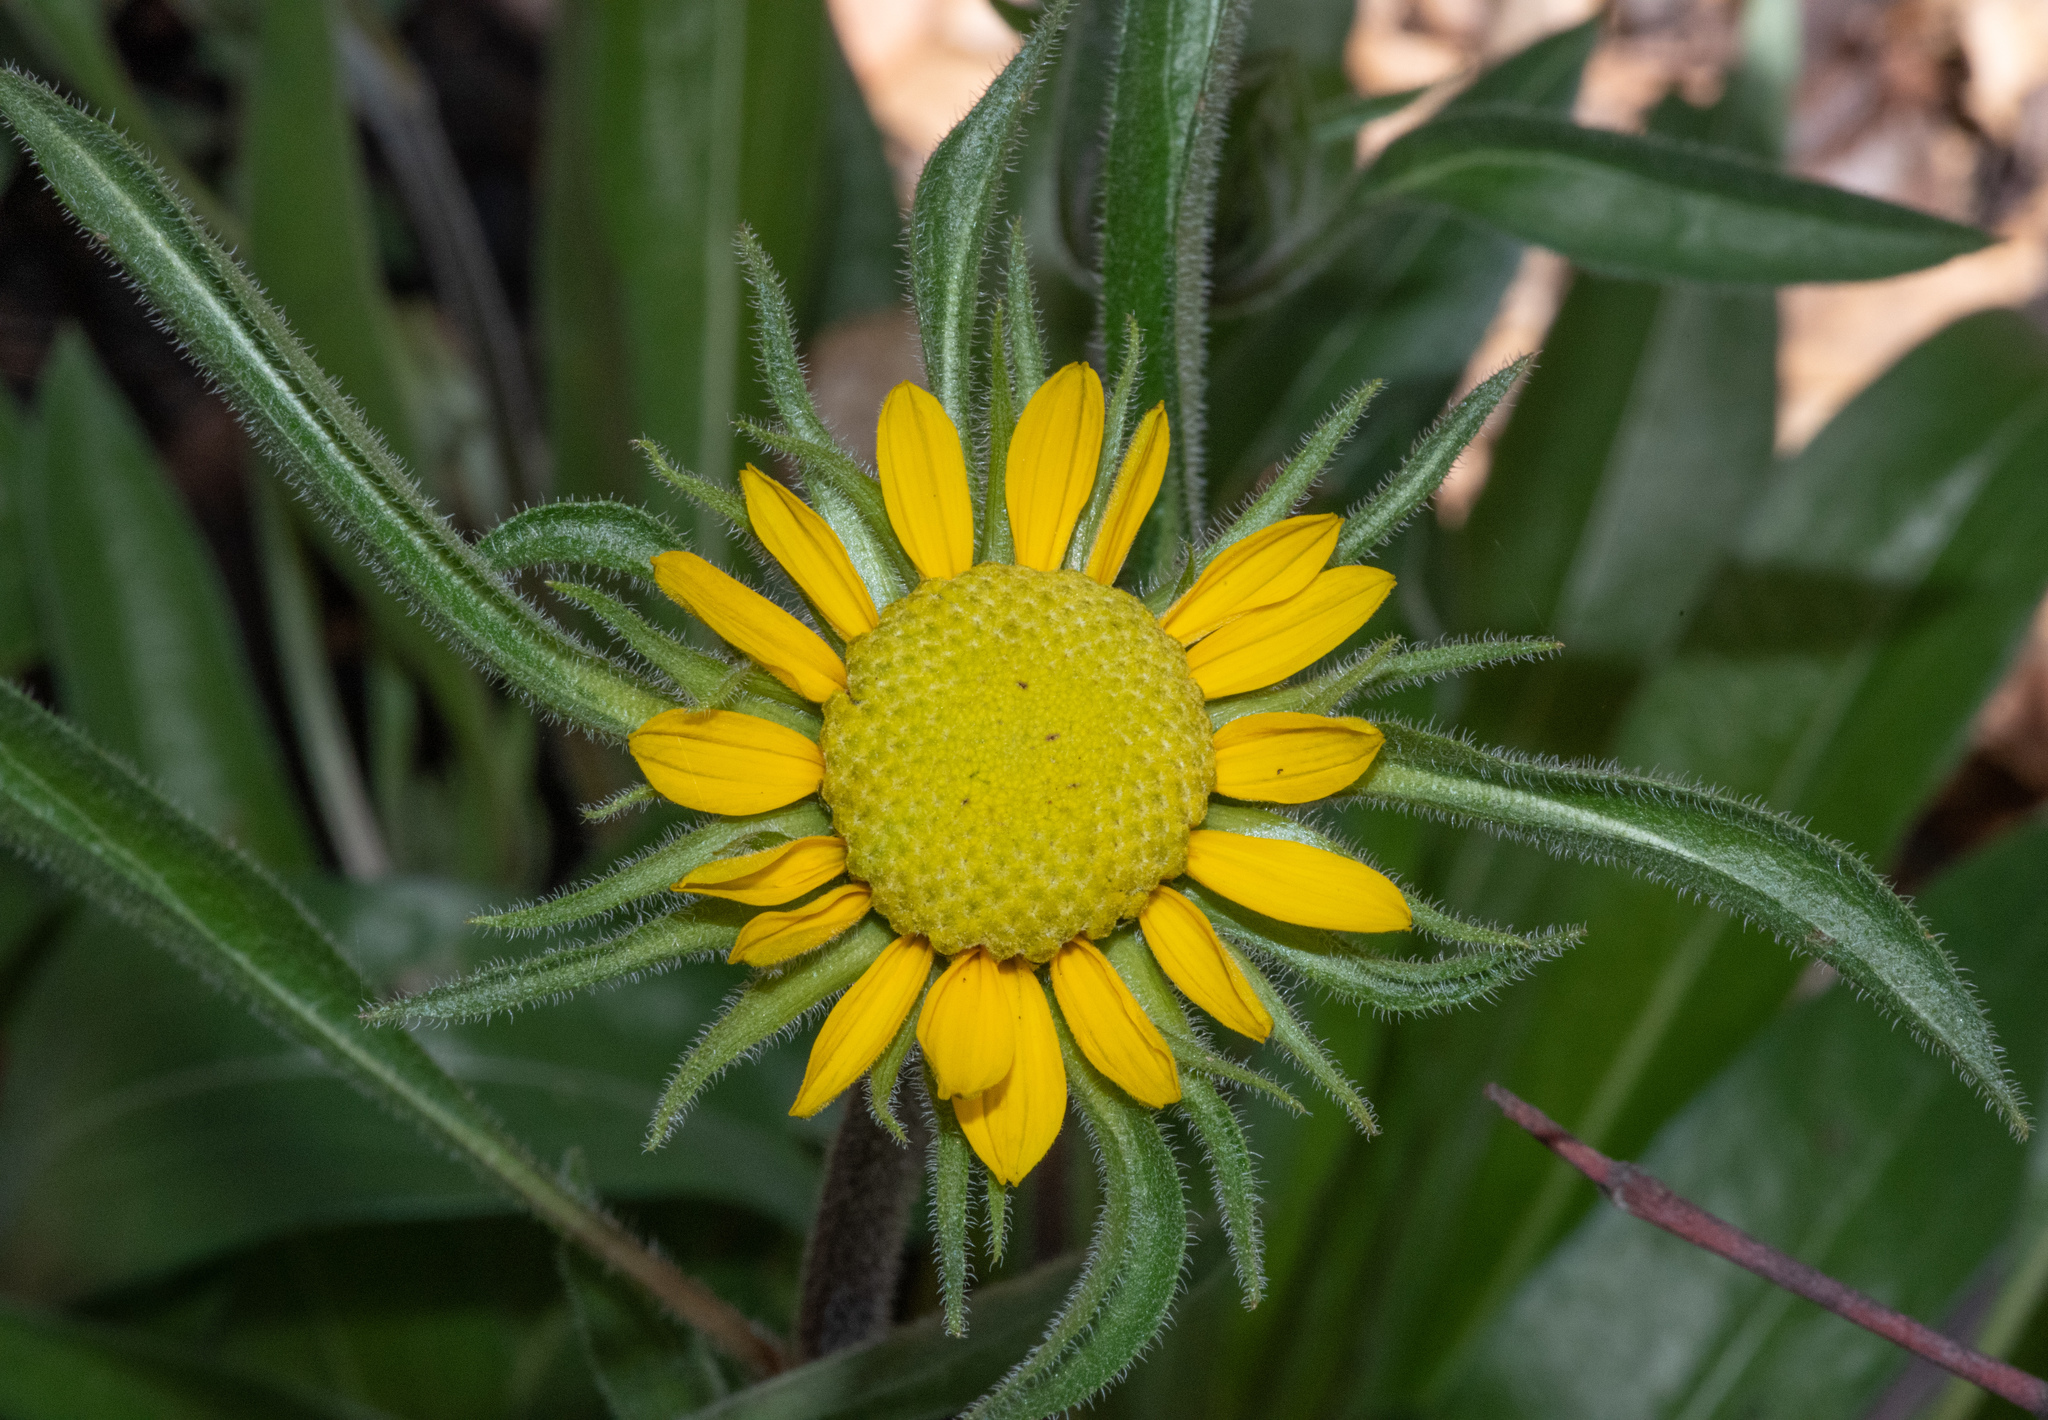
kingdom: Plantae
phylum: Tracheophyta
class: Magnoliopsida
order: Asterales
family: Asteraceae
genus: Helianthella
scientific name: Helianthella californica
